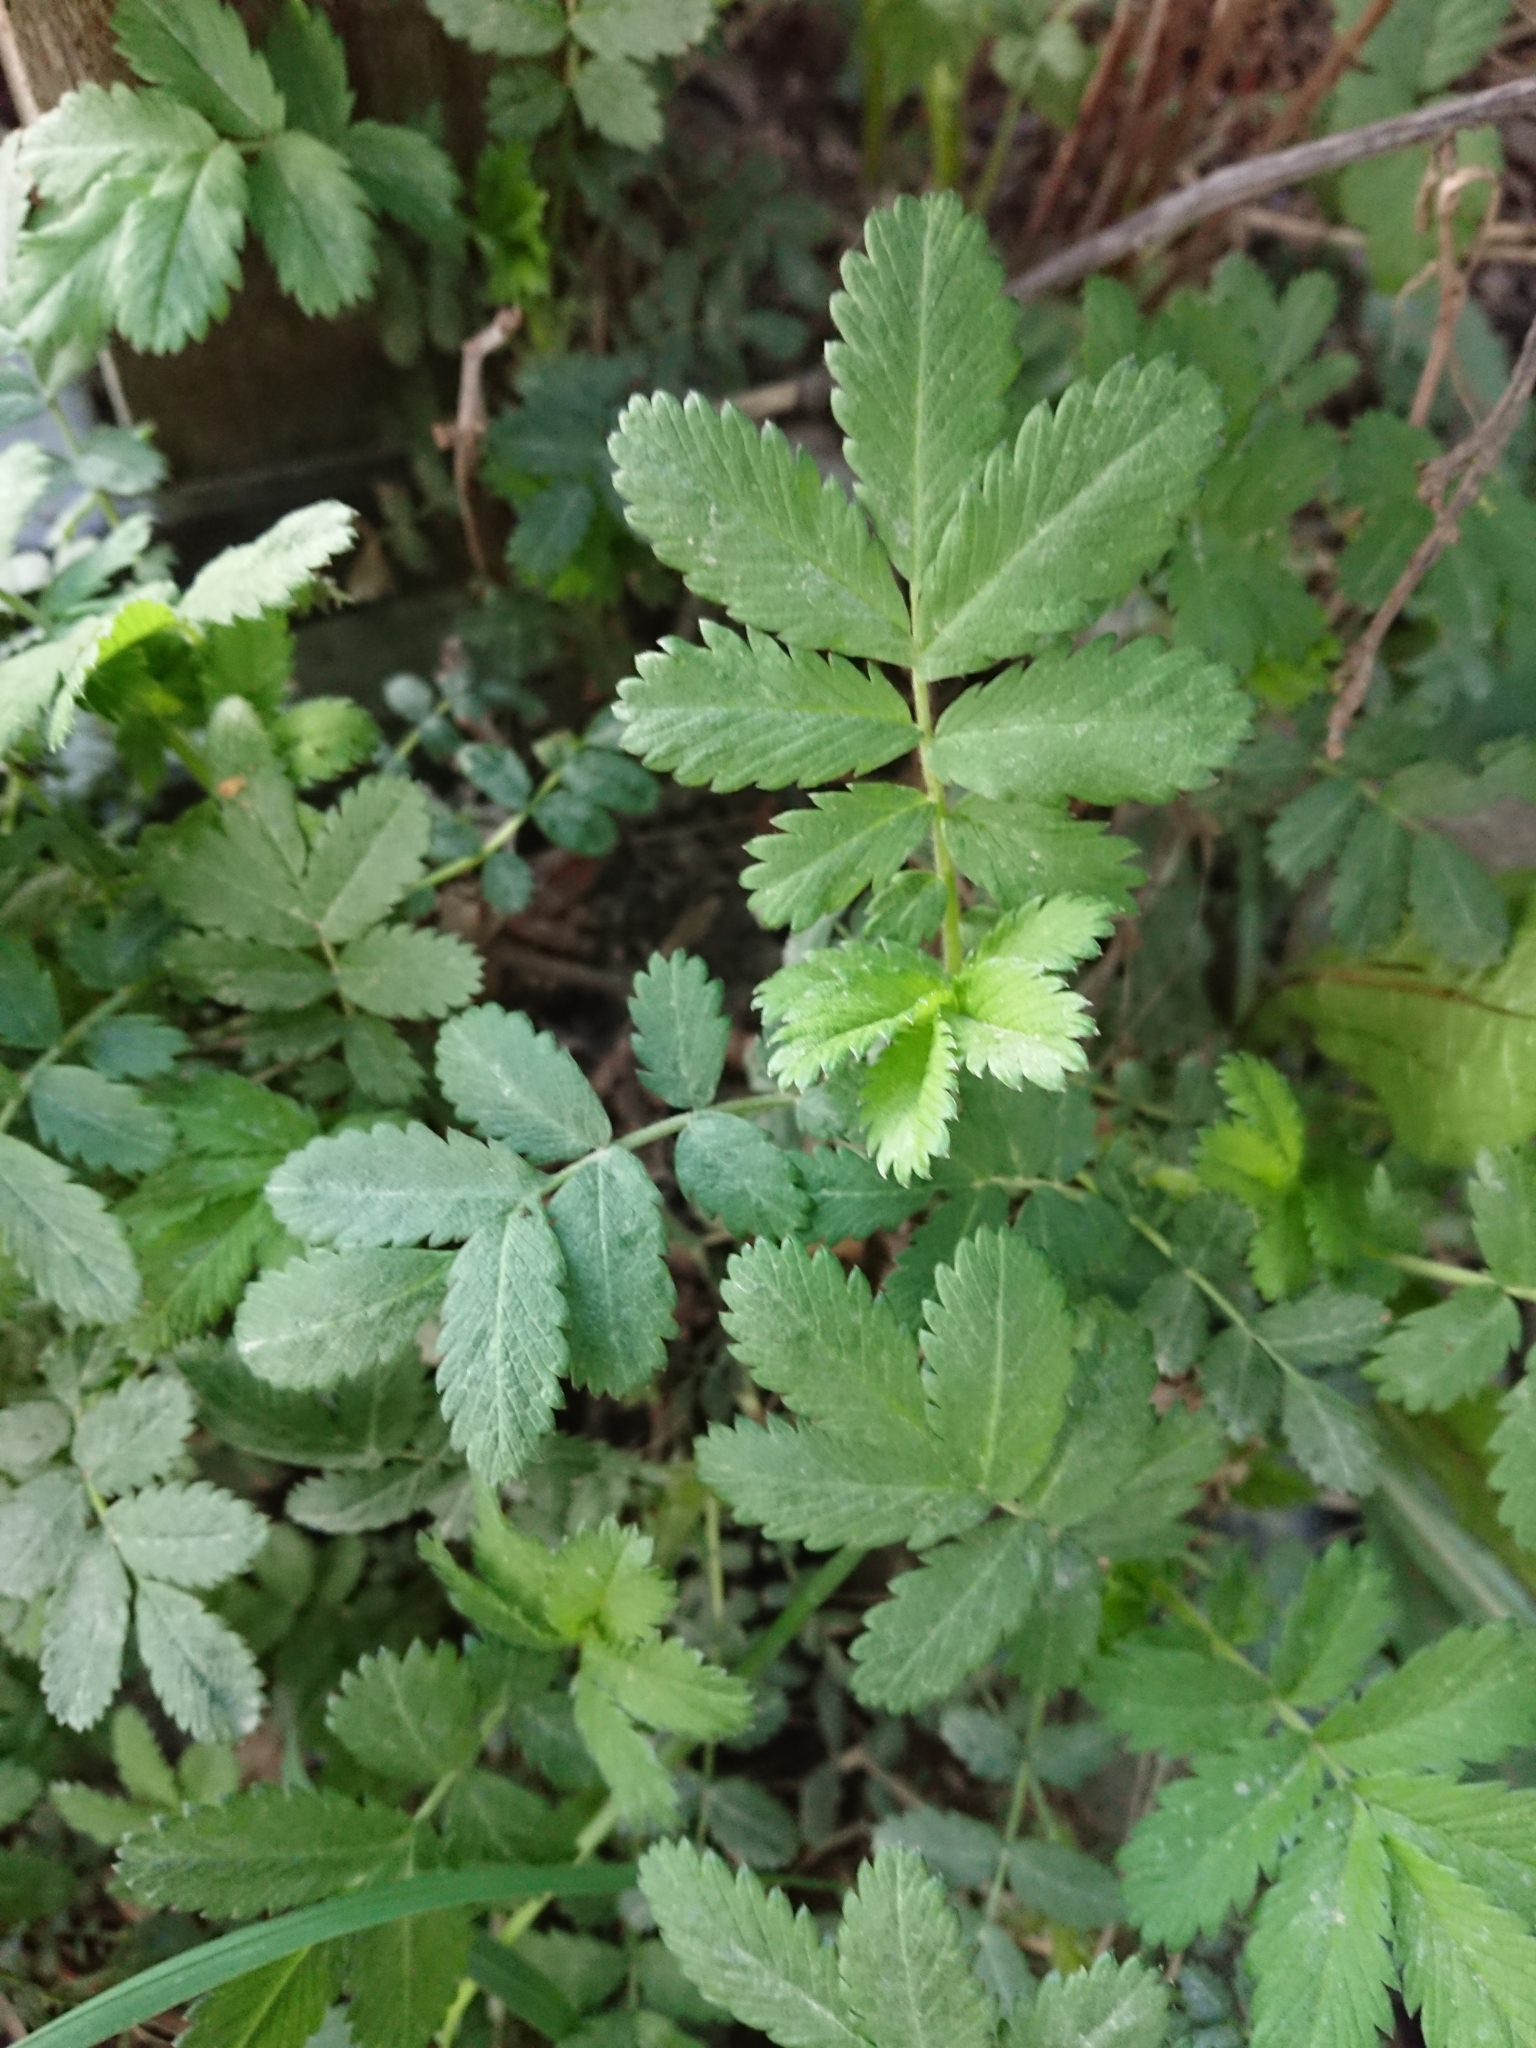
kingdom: Plantae
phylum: Tracheophyta
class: Magnoliopsida
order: Rosales
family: Rosaceae
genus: Acaena
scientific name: Acaena ovalifolia
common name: Two-spined acaena
